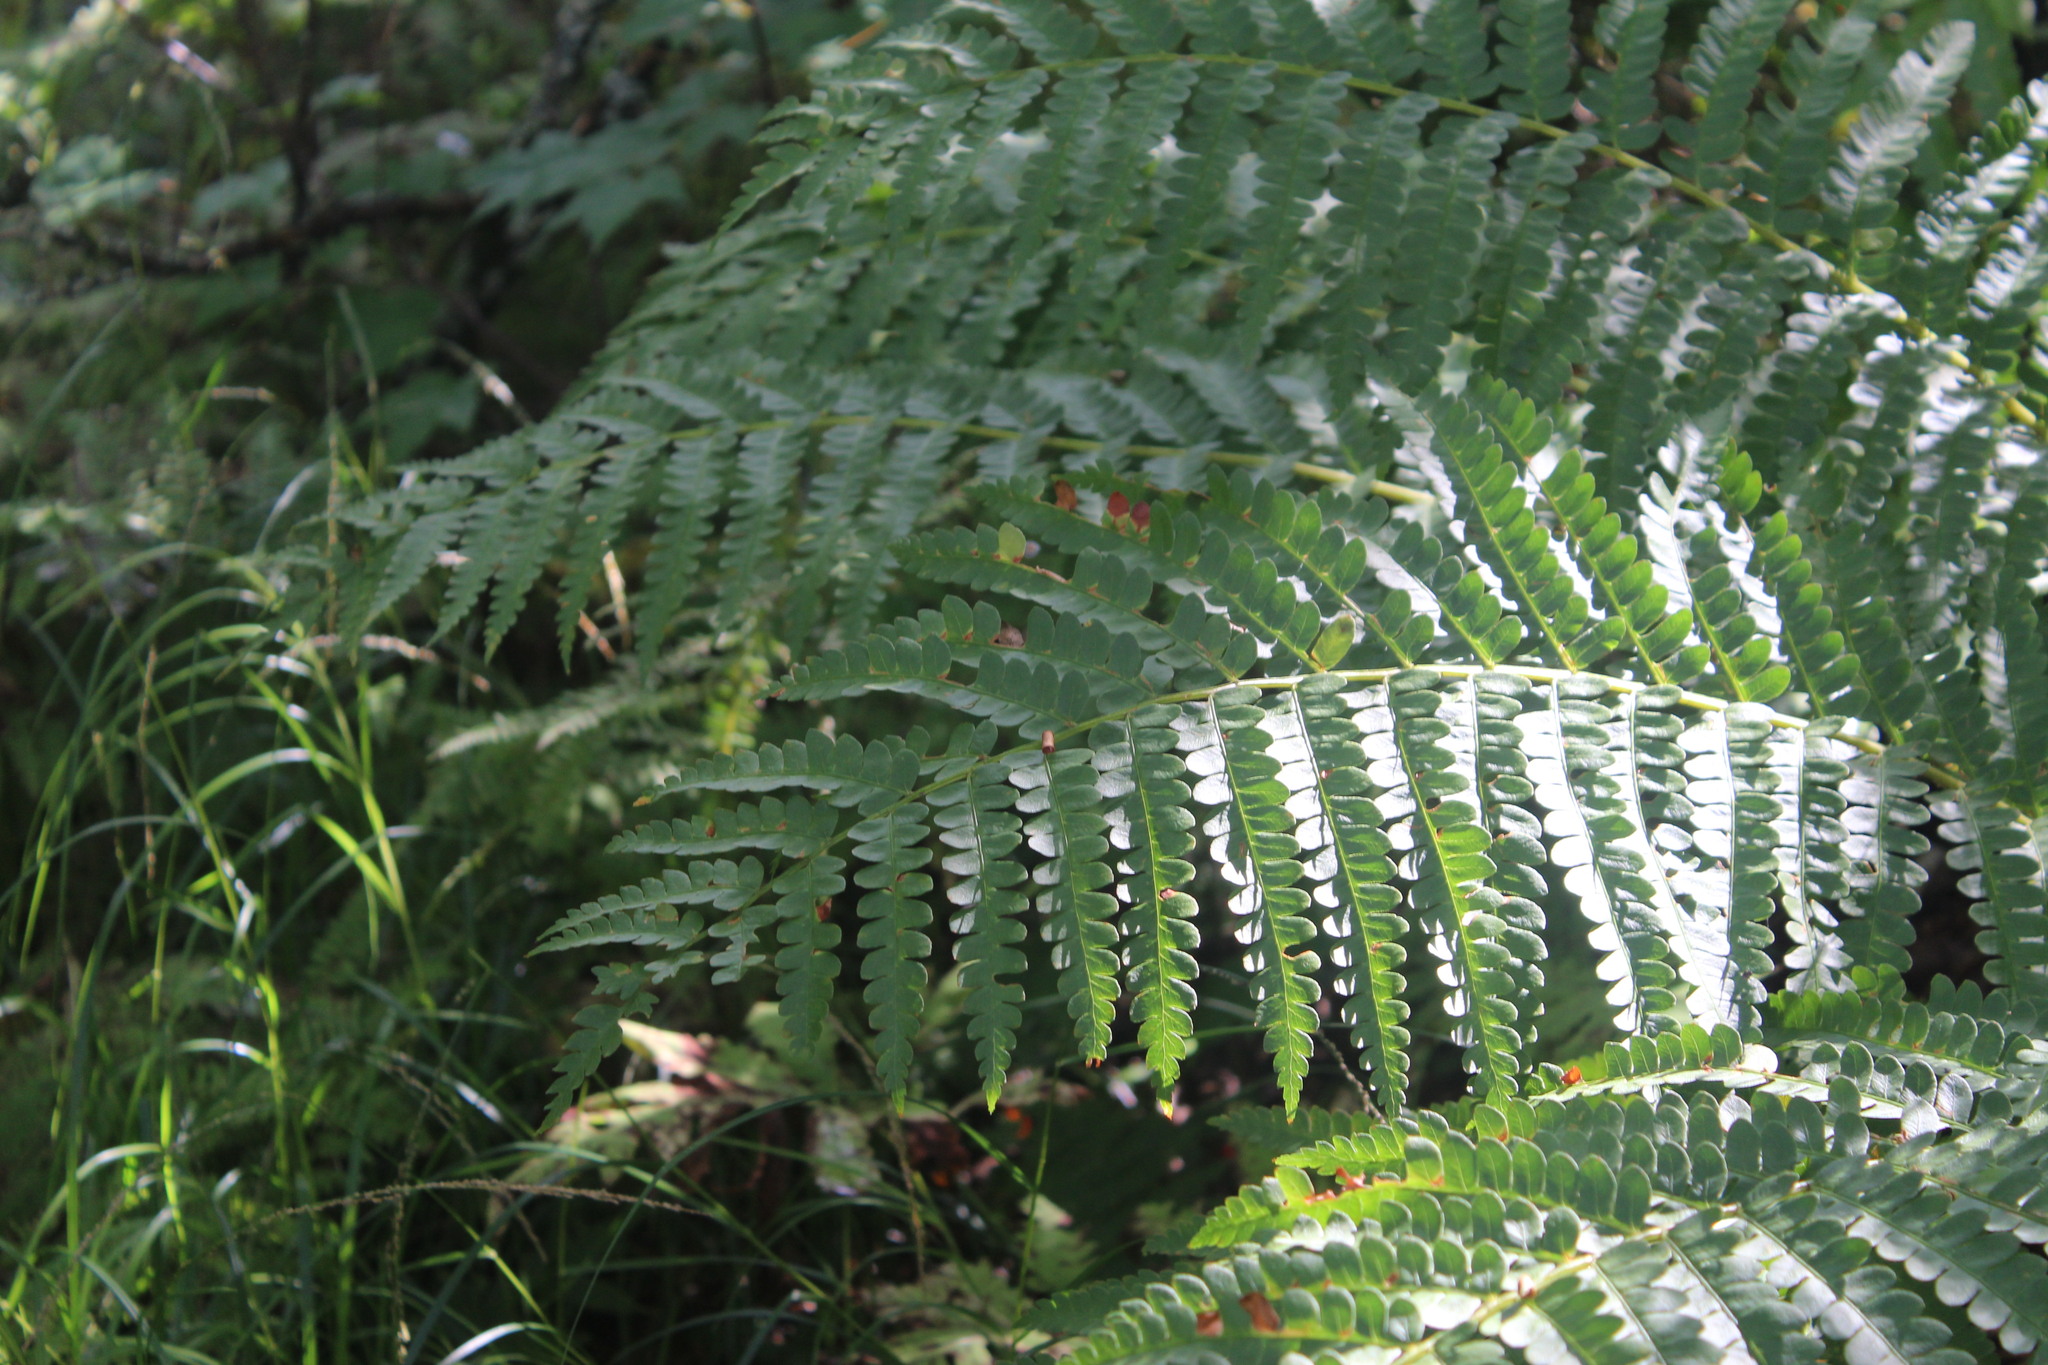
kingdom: Plantae
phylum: Tracheophyta
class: Polypodiopsida
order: Osmundales
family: Osmundaceae
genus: Osmundastrum
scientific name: Osmundastrum cinnamomeum
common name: Cinnamon fern
